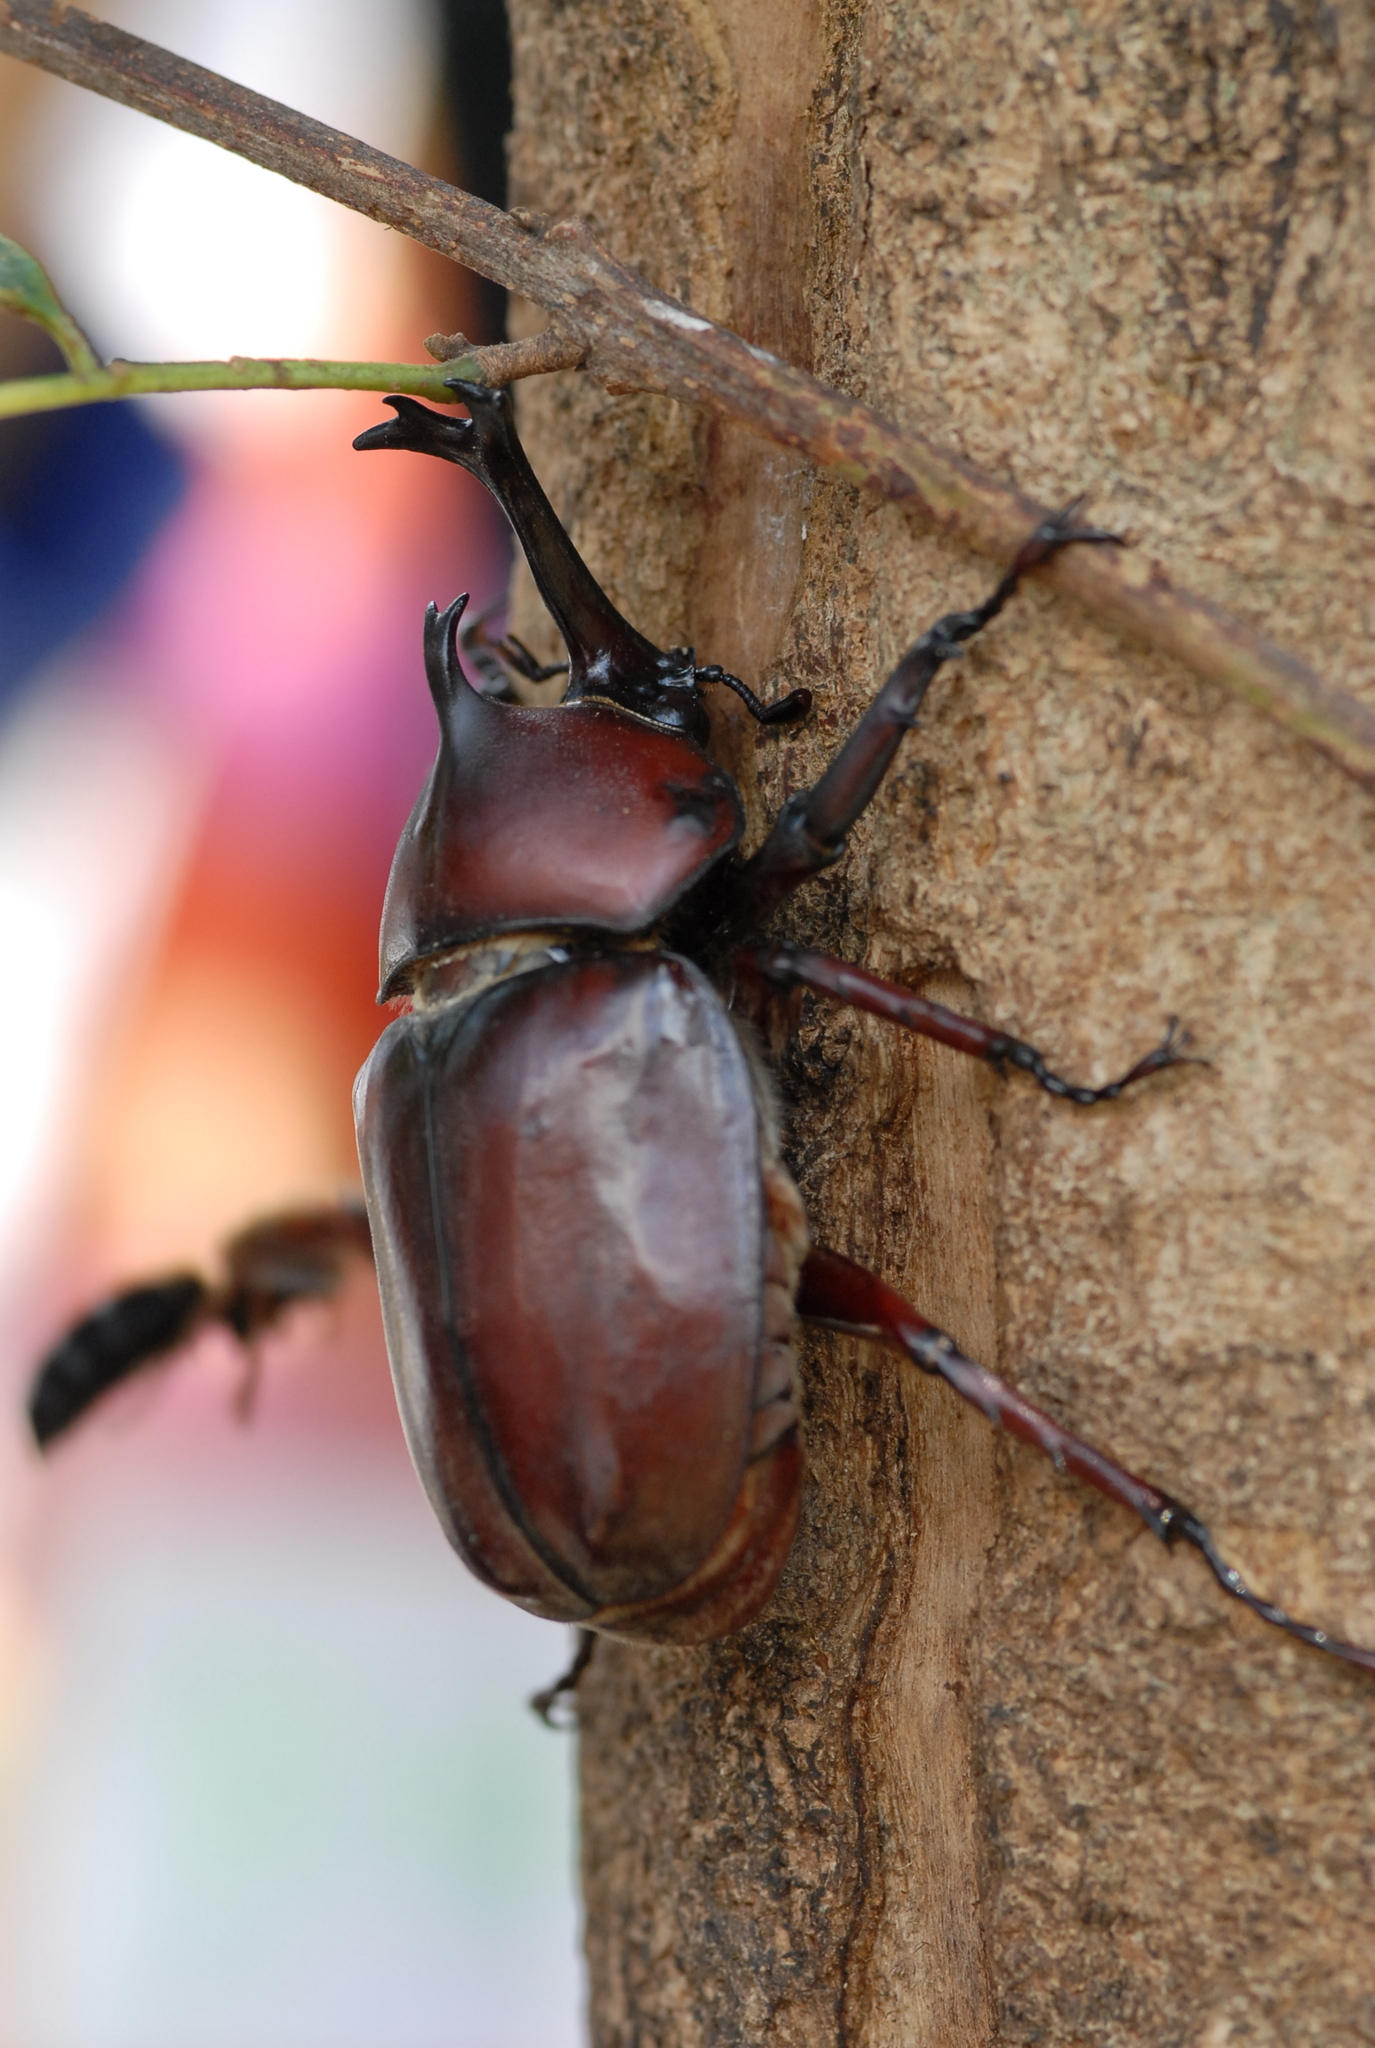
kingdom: Animalia
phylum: Arthropoda
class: Insecta
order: Coleoptera
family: Scarabaeidae
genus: Trypoxylus
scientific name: Trypoxylus dichotomus
